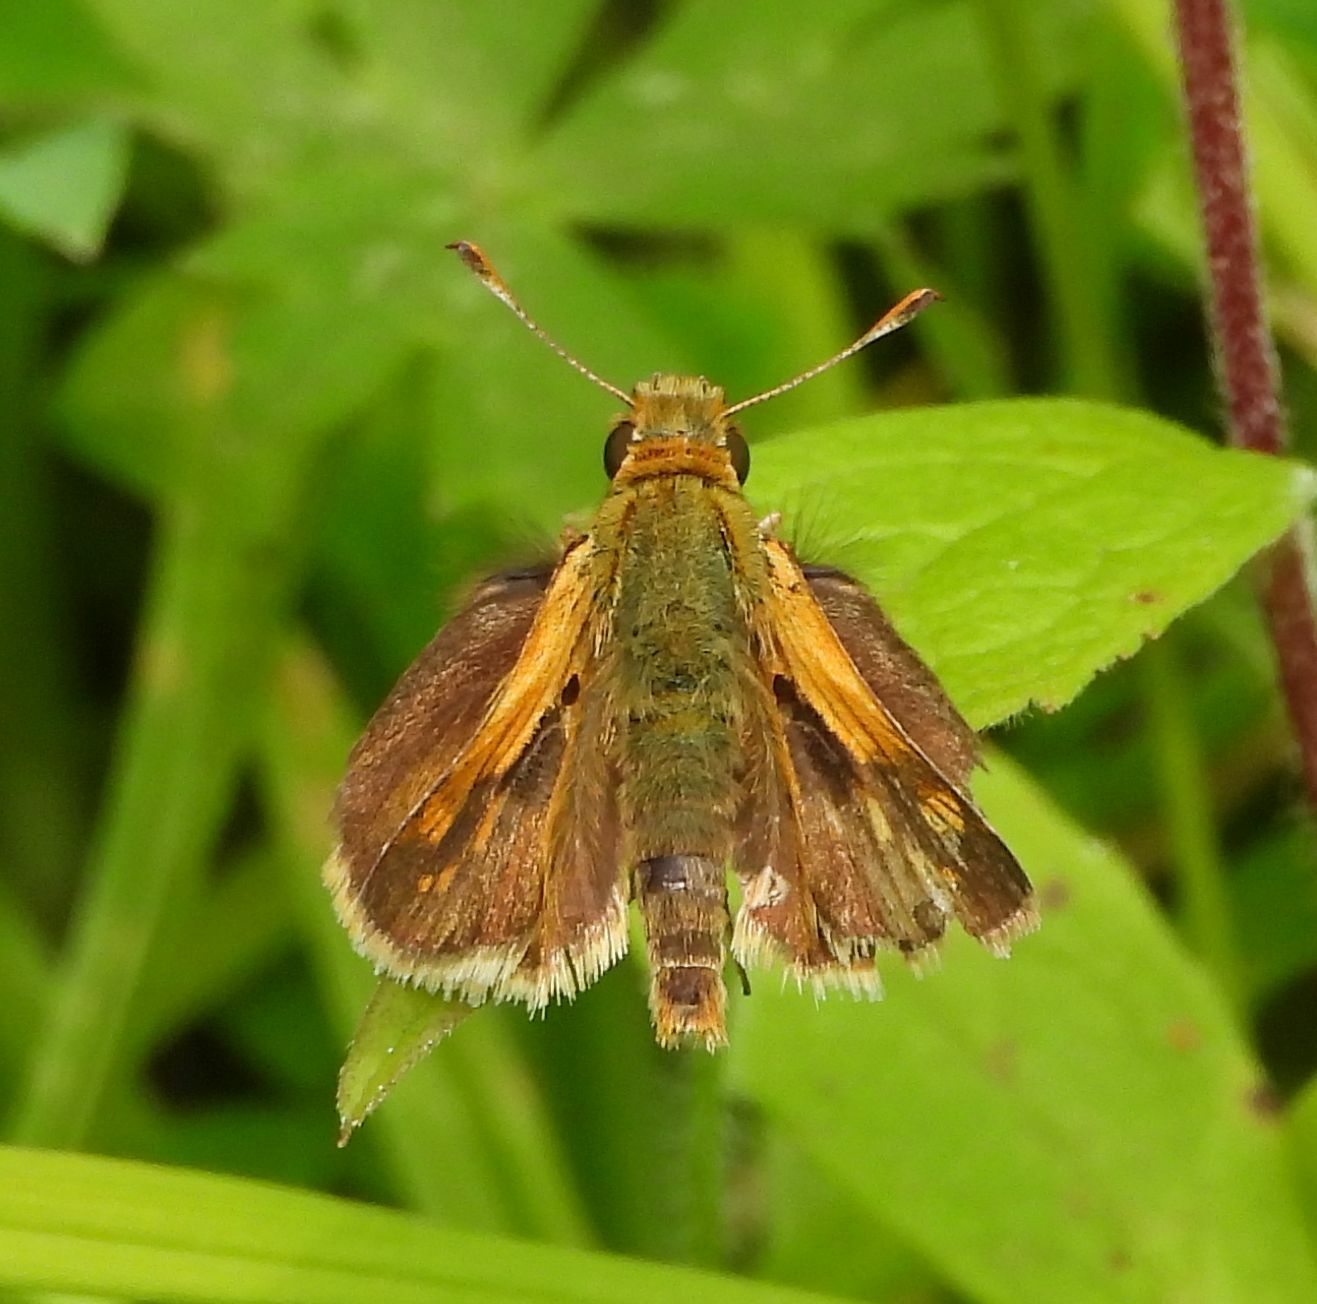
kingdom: Animalia
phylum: Arthropoda
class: Insecta
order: Lepidoptera
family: Hesperiidae
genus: Polites
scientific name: Polites coras
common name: Peck's skipper
